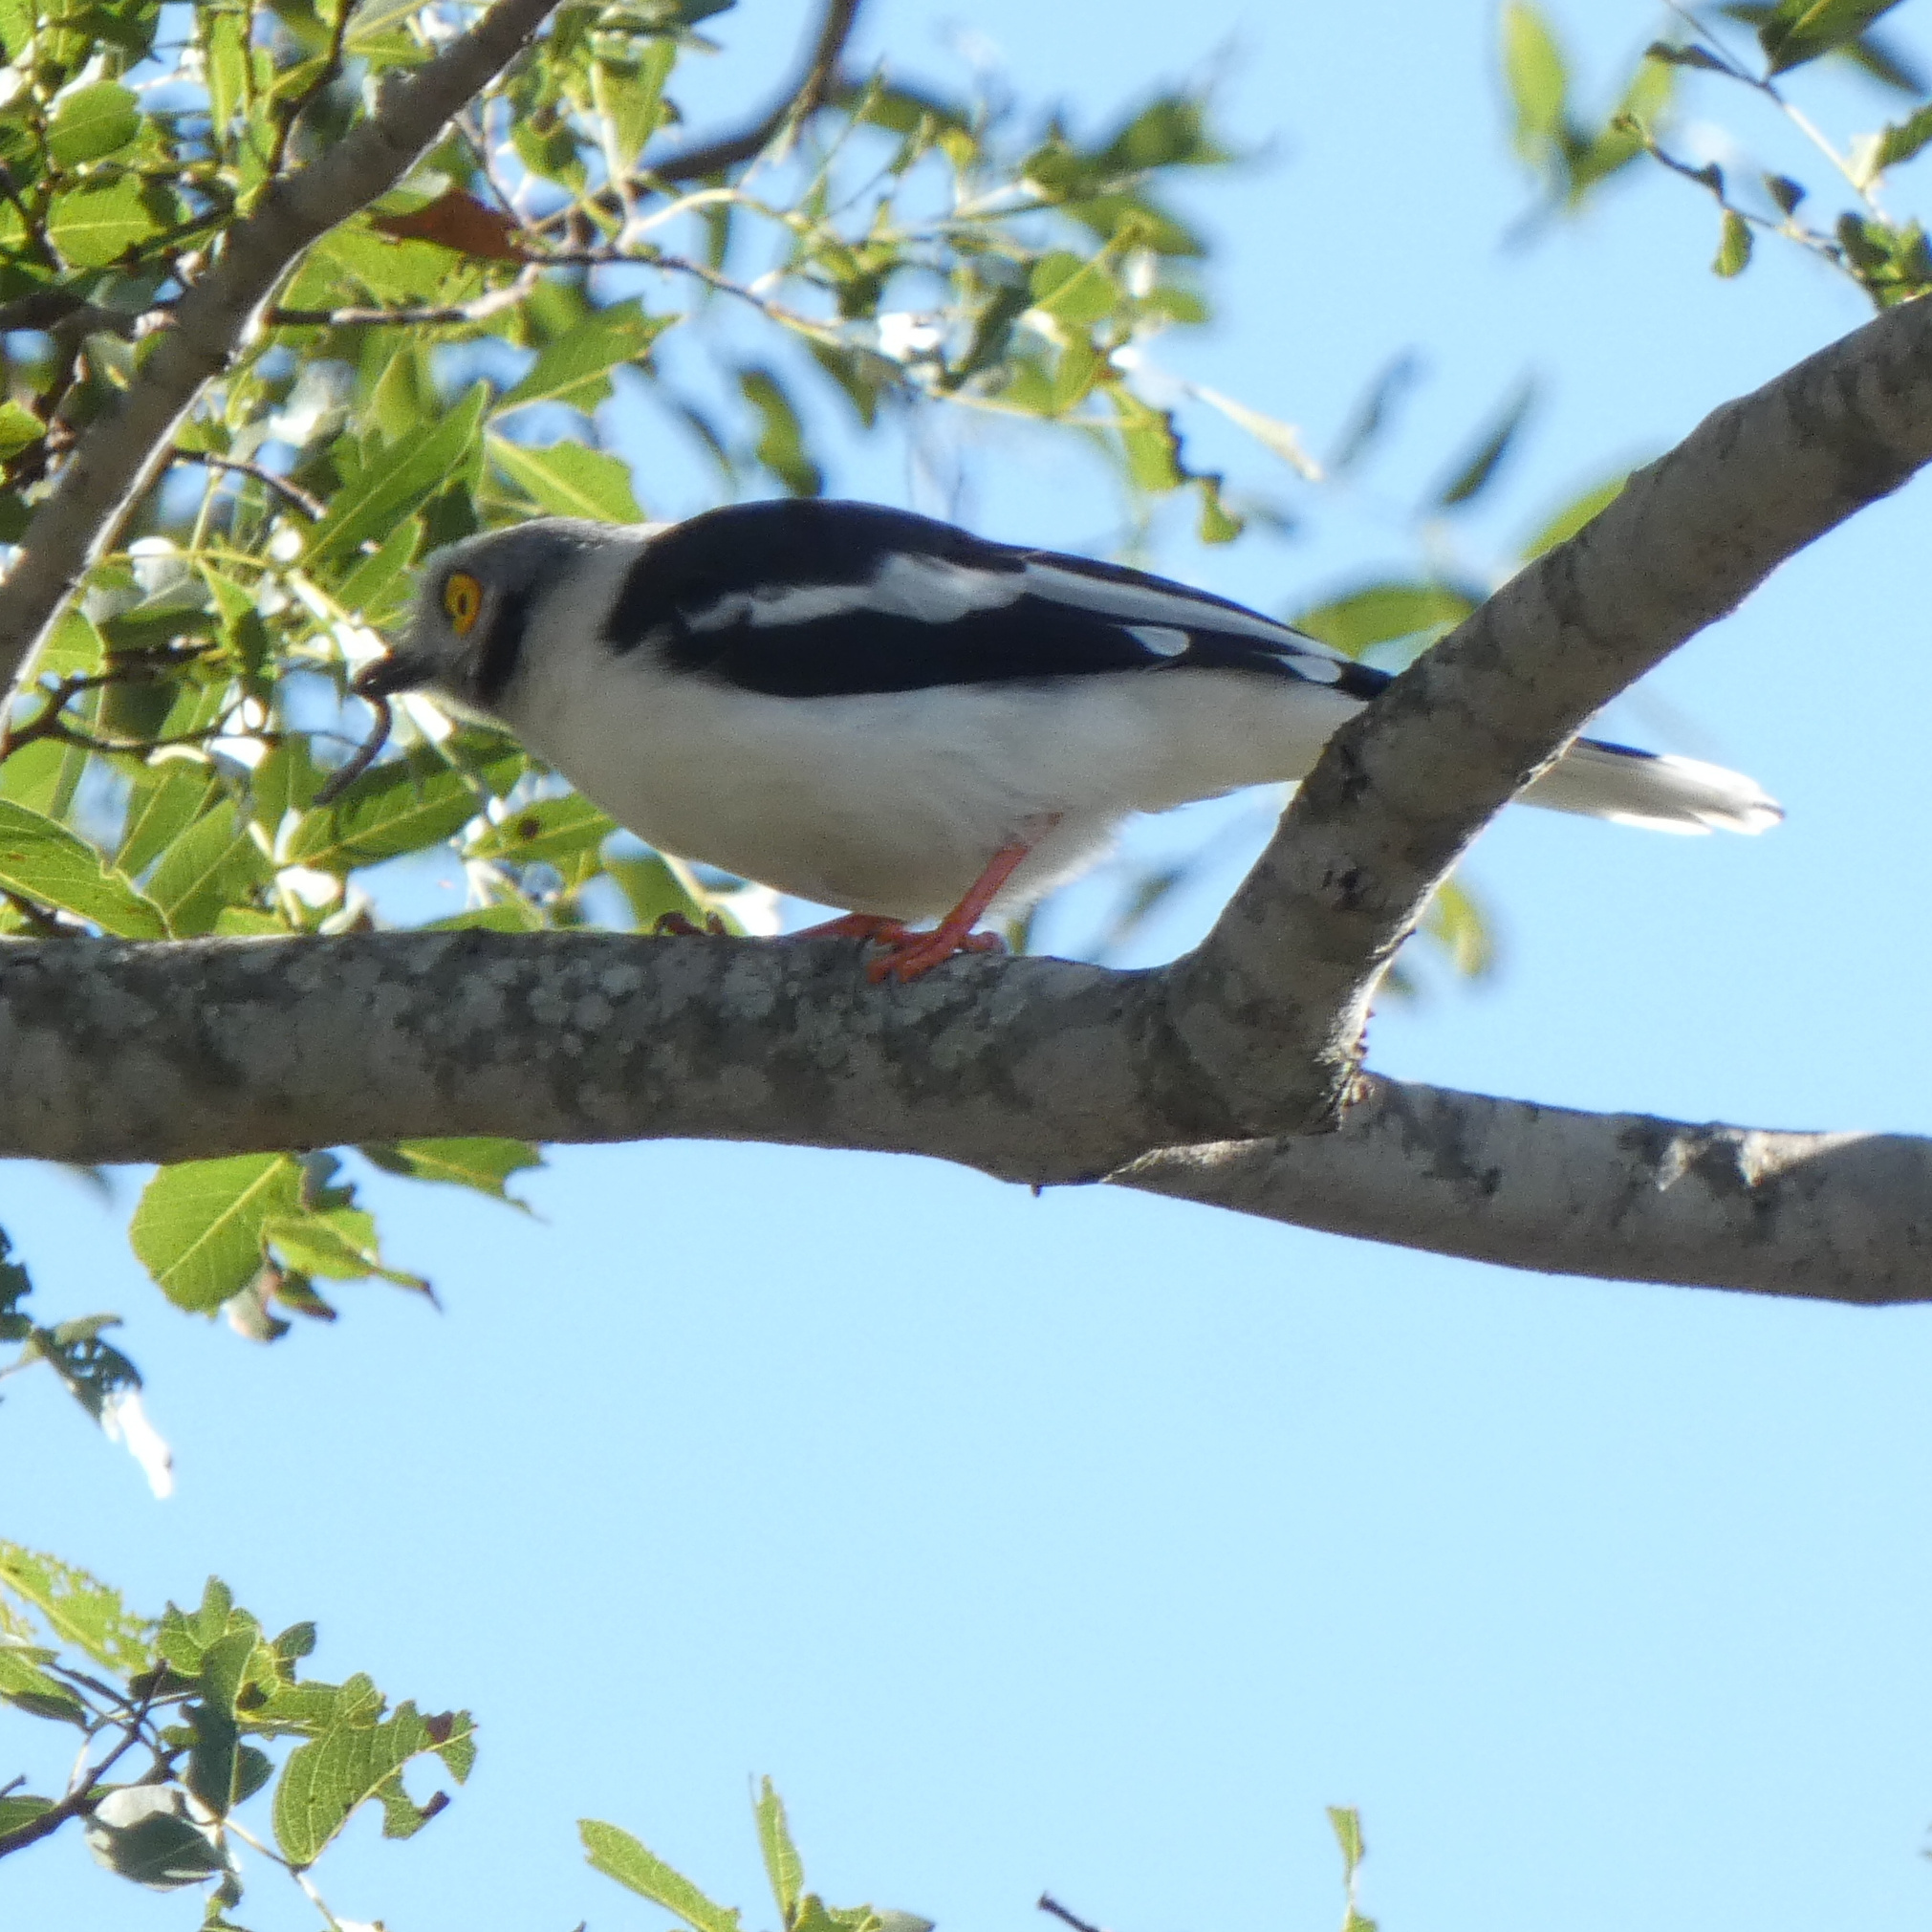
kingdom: Animalia
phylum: Chordata
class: Aves
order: Passeriformes
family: Prionopidae
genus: Prionops
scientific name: Prionops plumatus
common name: White-crested helmetshrike
